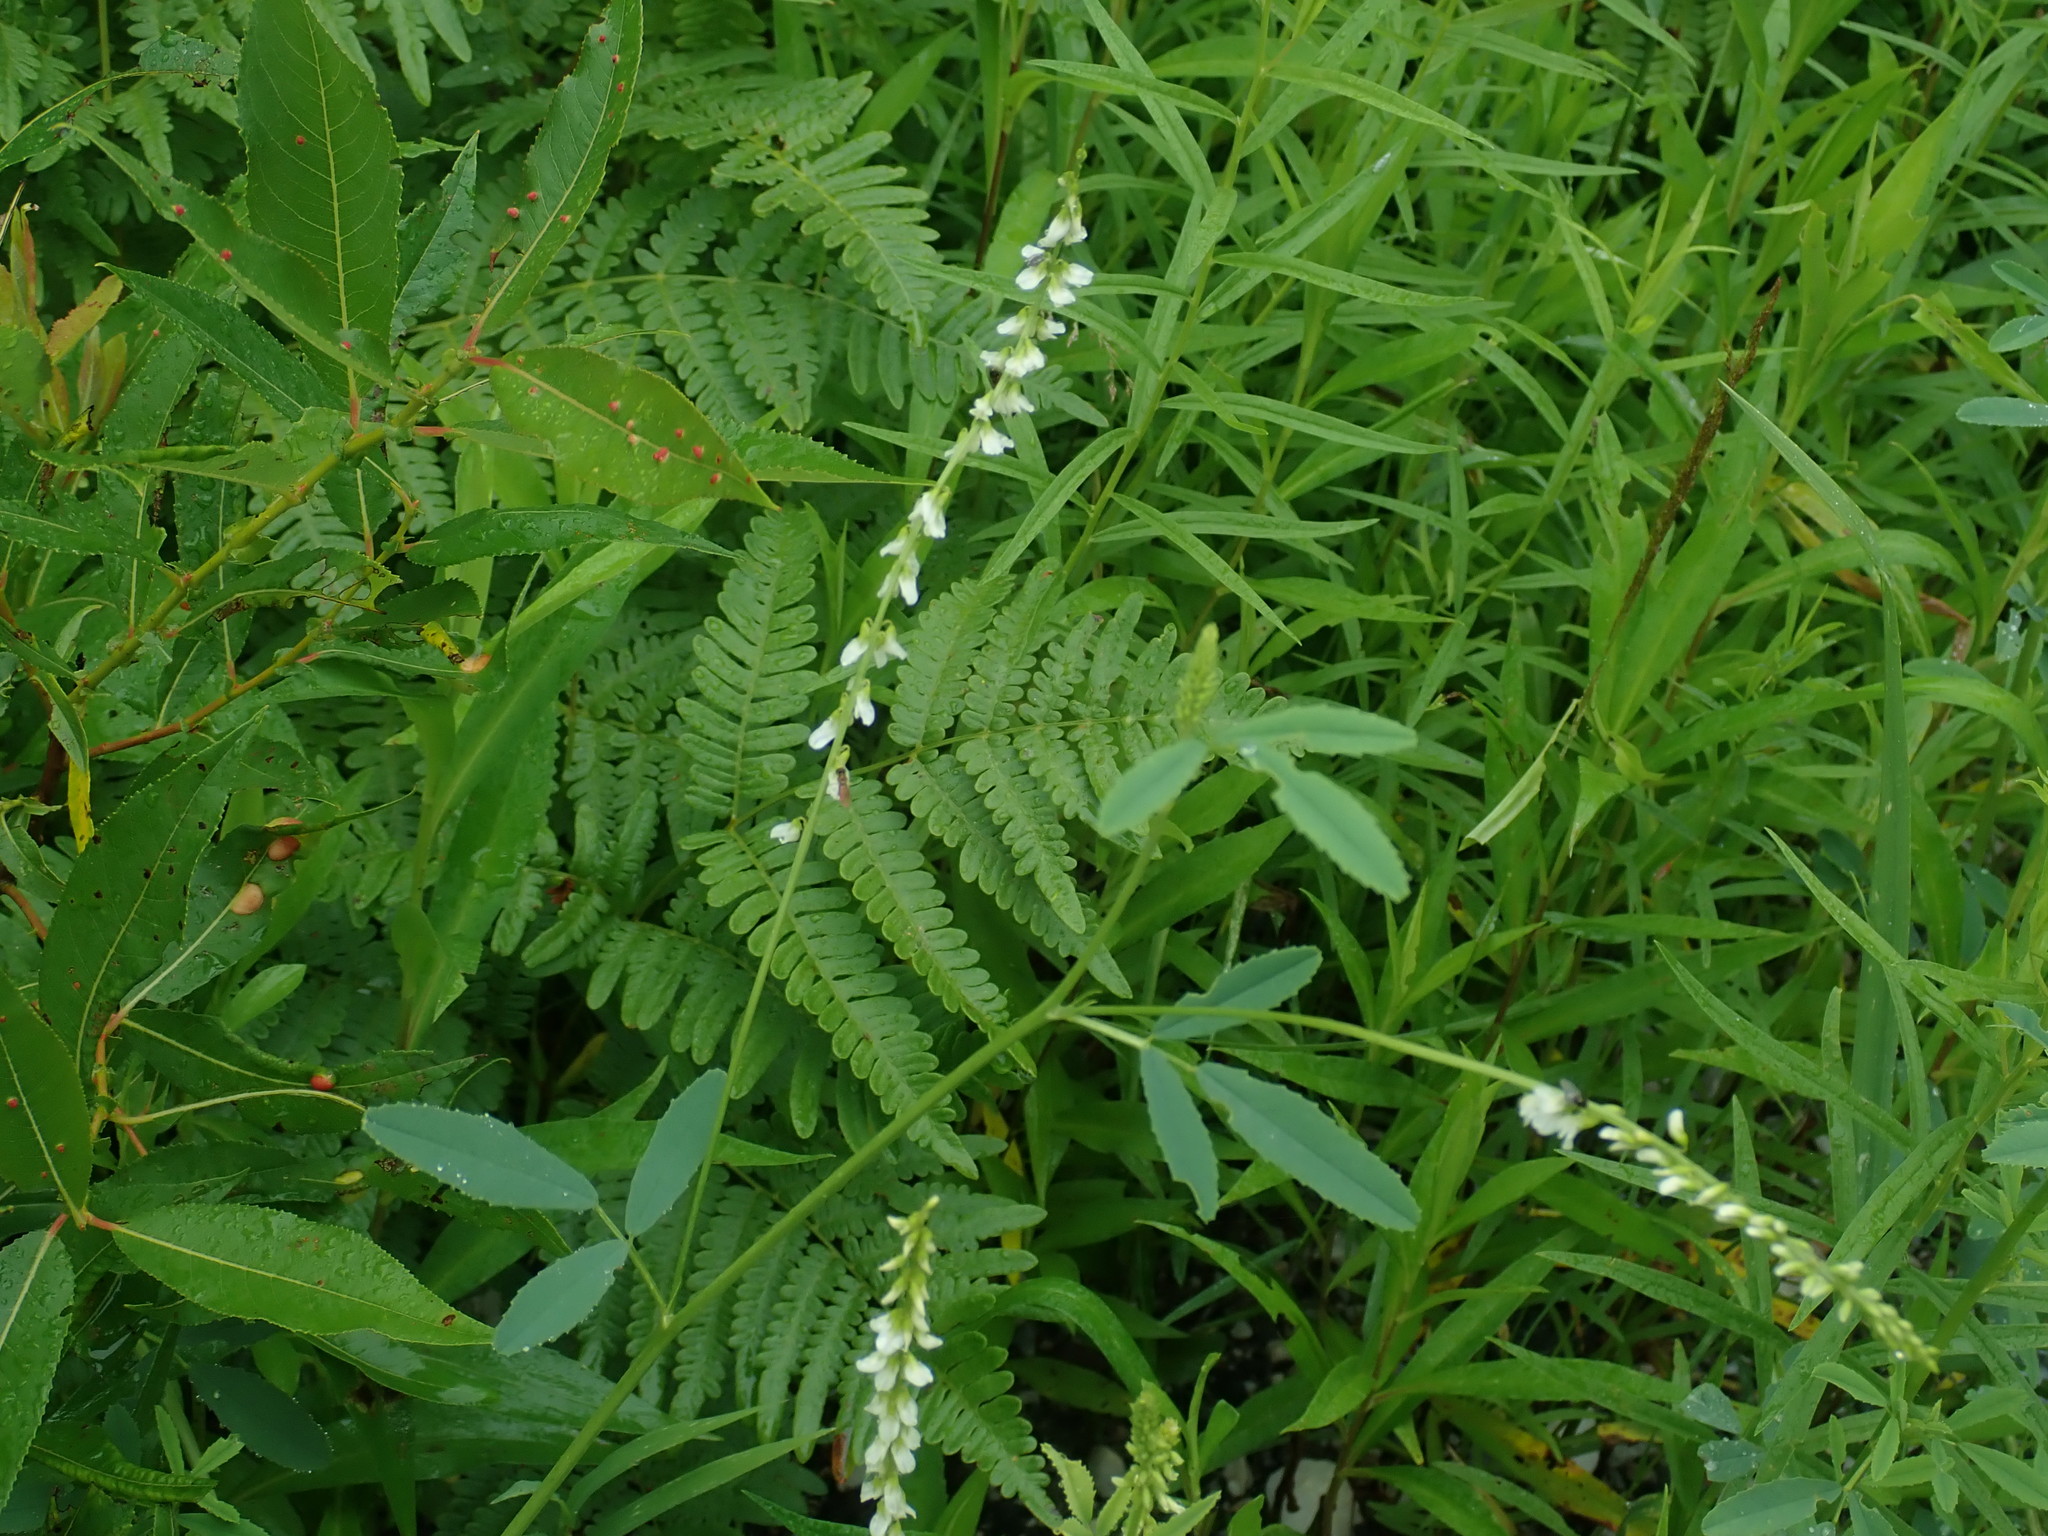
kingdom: Plantae
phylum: Tracheophyta
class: Magnoliopsida
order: Fabales
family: Fabaceae
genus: Melilotus
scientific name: Melilotus albus
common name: White melilot
